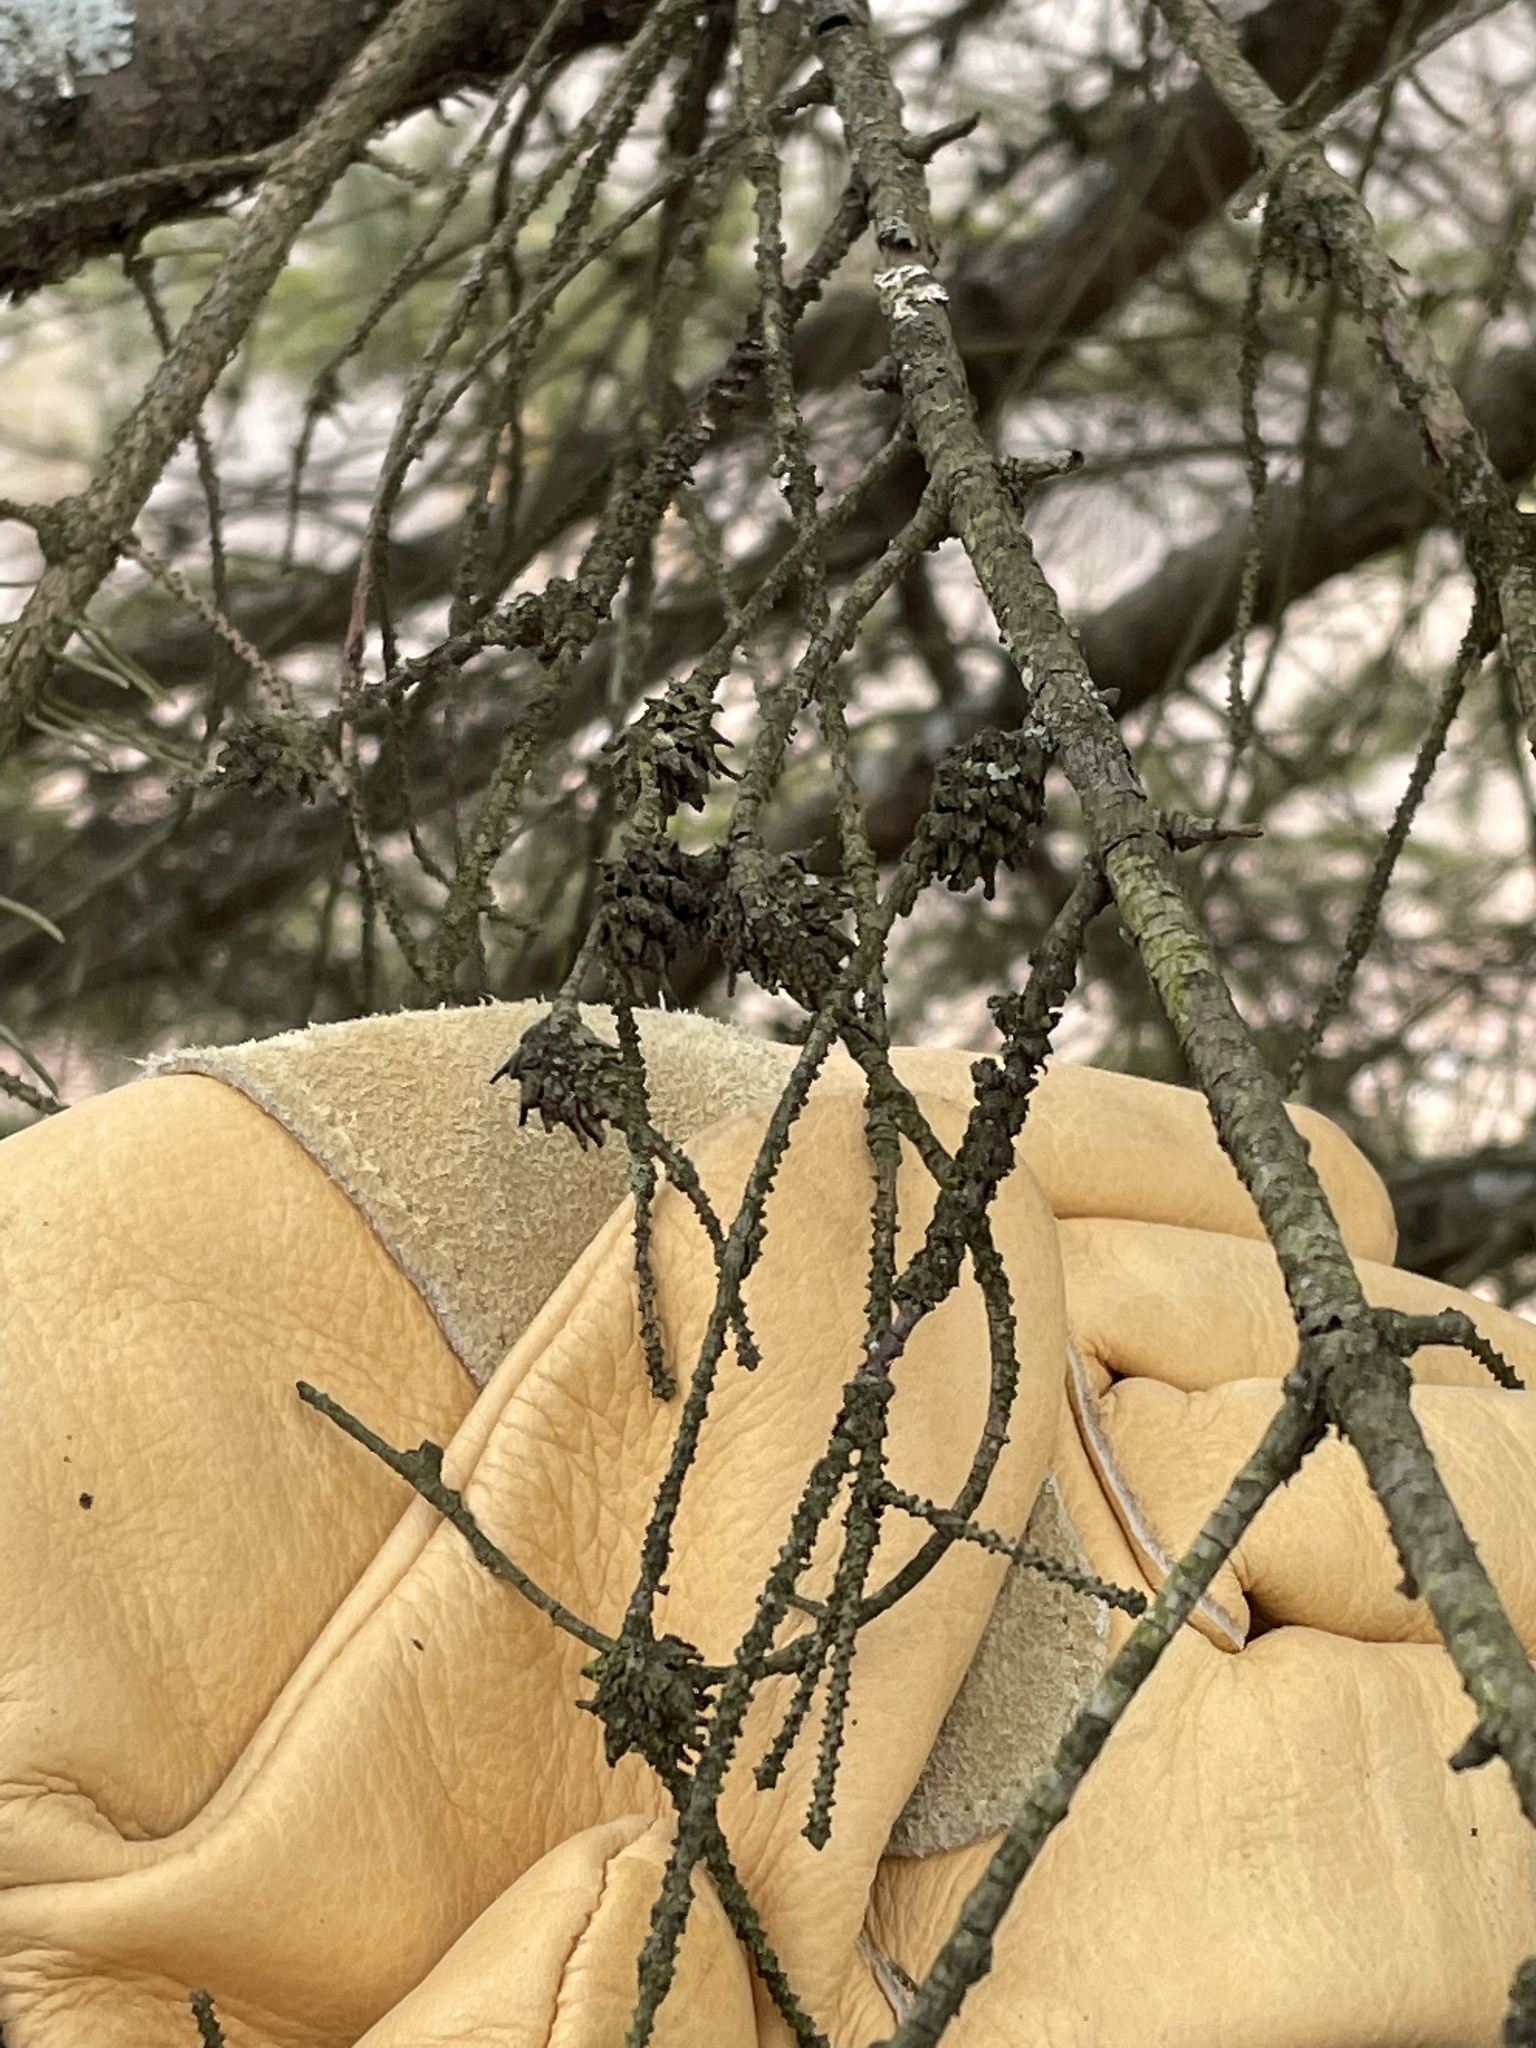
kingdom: Plantae
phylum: Tracheophyta
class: Pinopsida
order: Pinales
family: Pinaceae
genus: Picea
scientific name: Picea glauca
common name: White spruce
